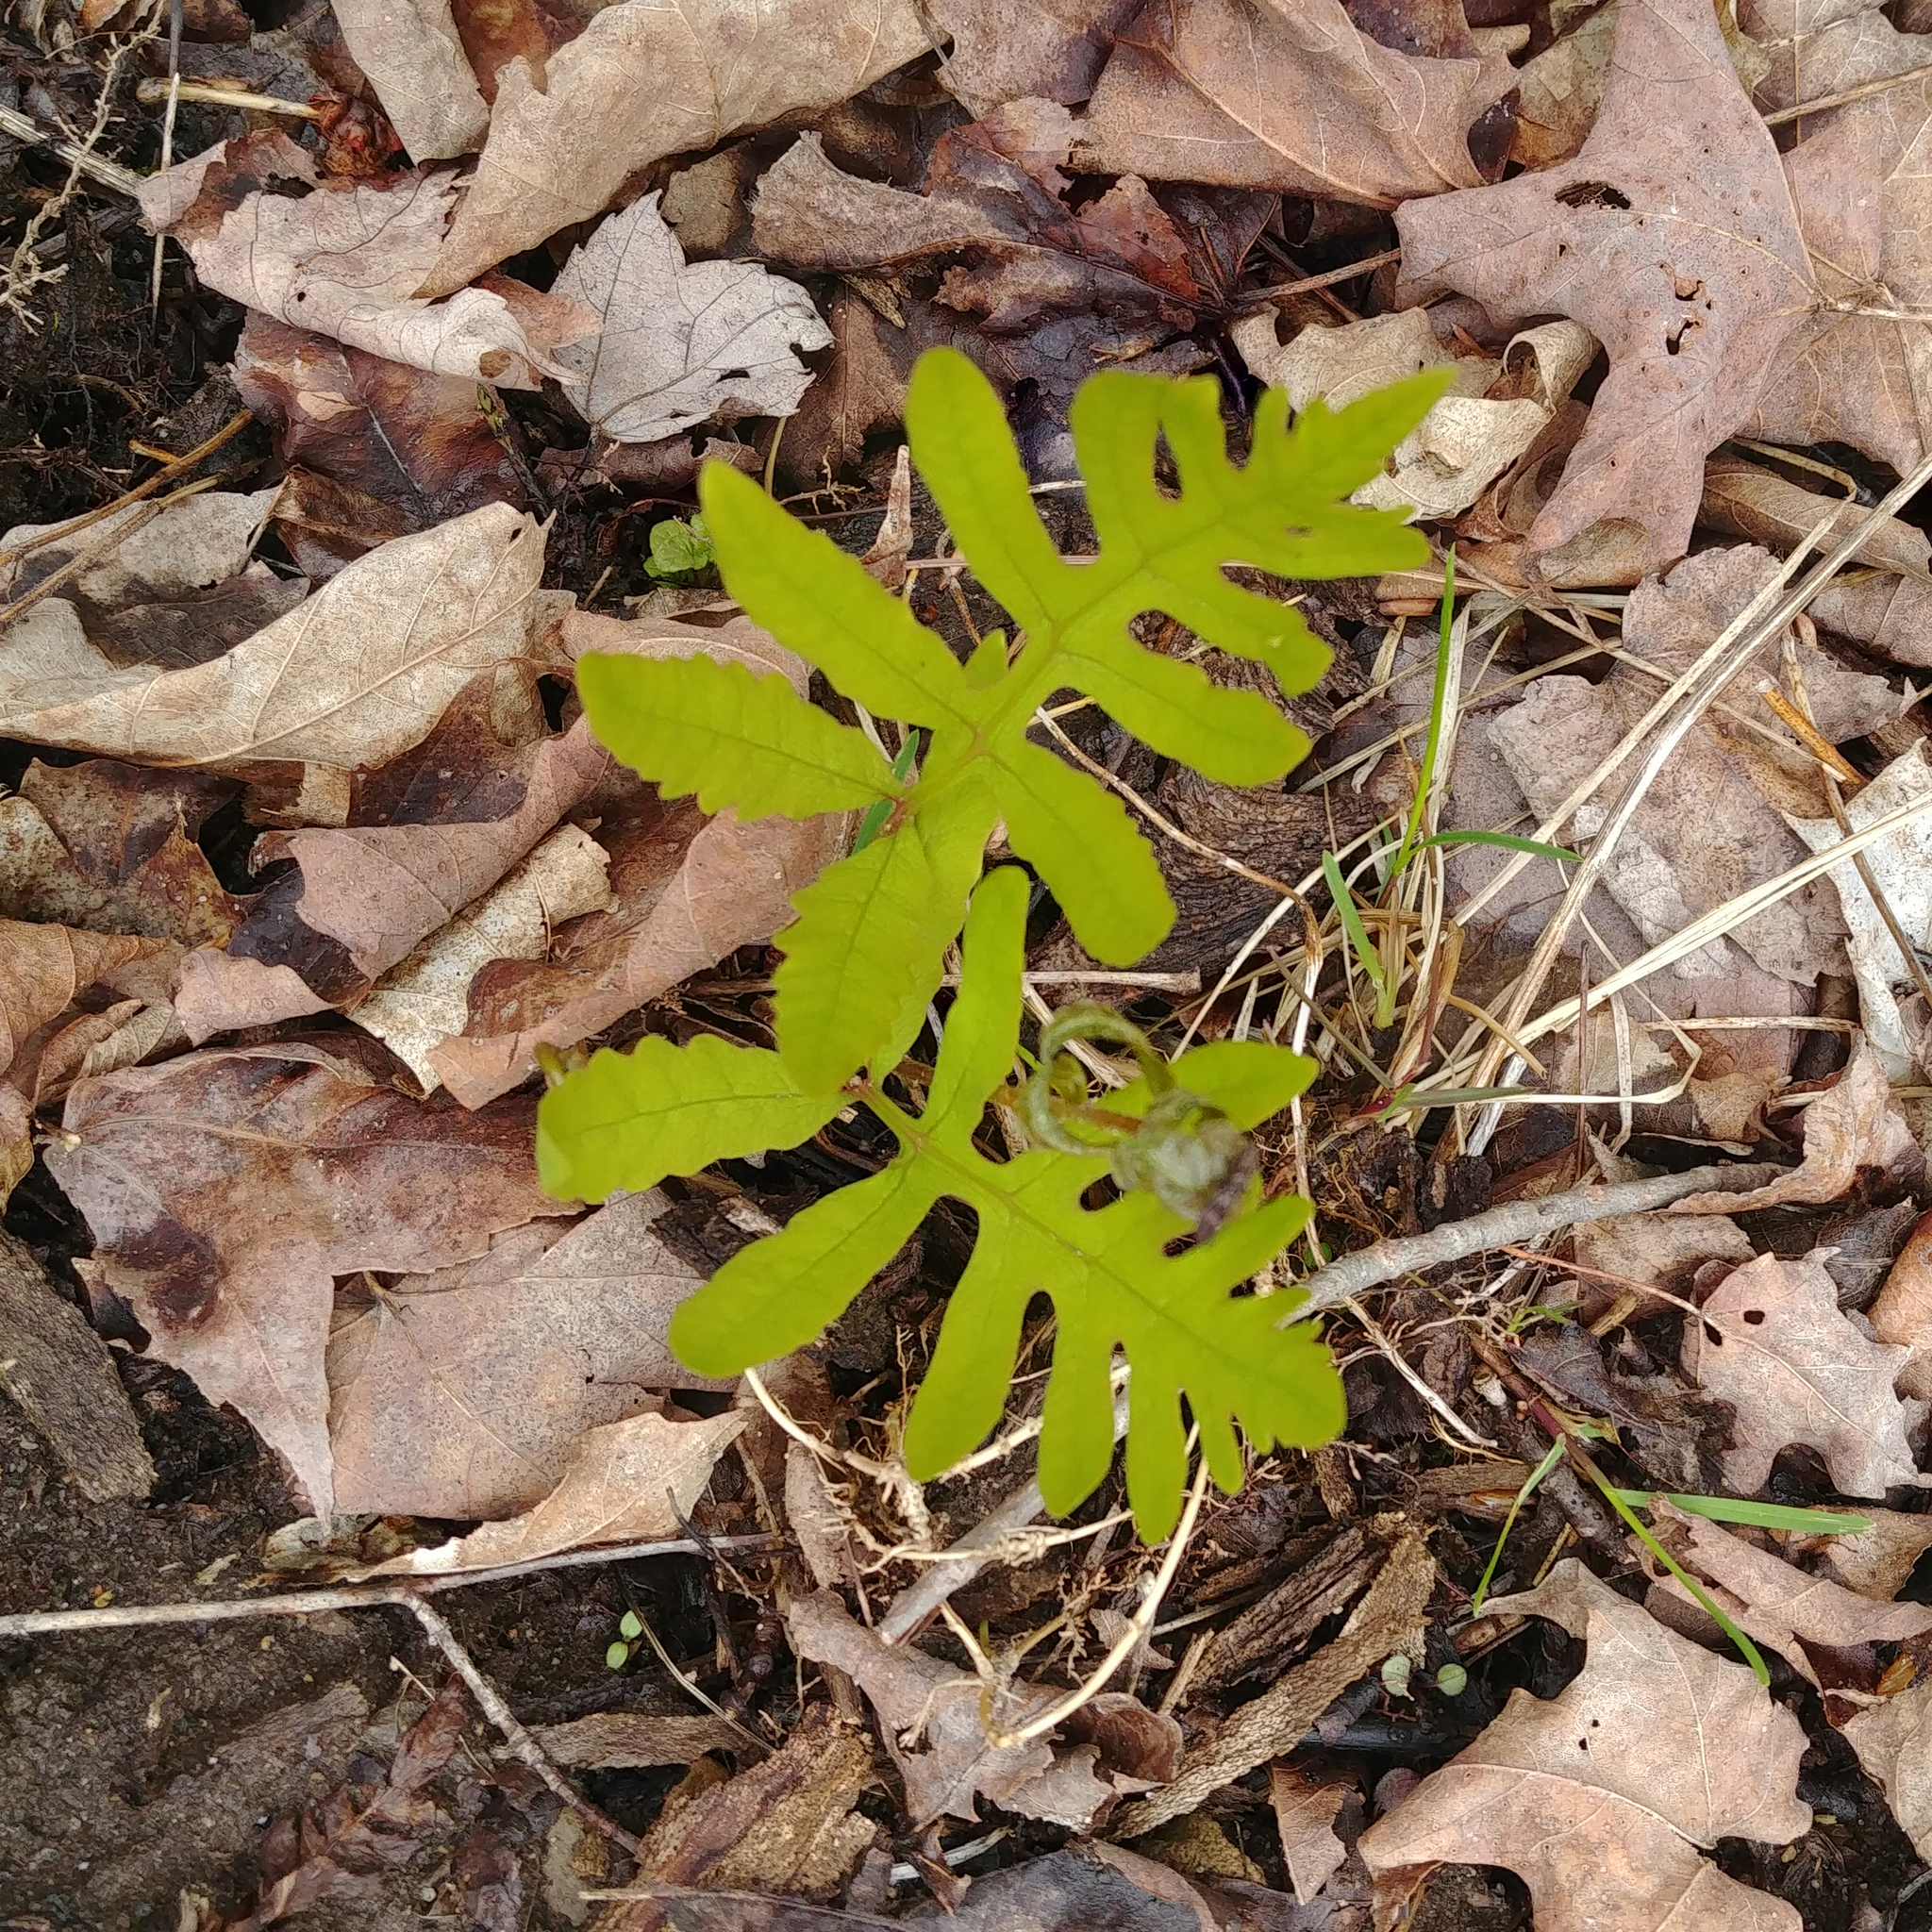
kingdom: Plantae
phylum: Tracheophyta
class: Polypodiopsida
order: Polypodiales
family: Onocleaceae
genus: Onoclea
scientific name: Onoclea sensibilis
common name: Sensitive fern
